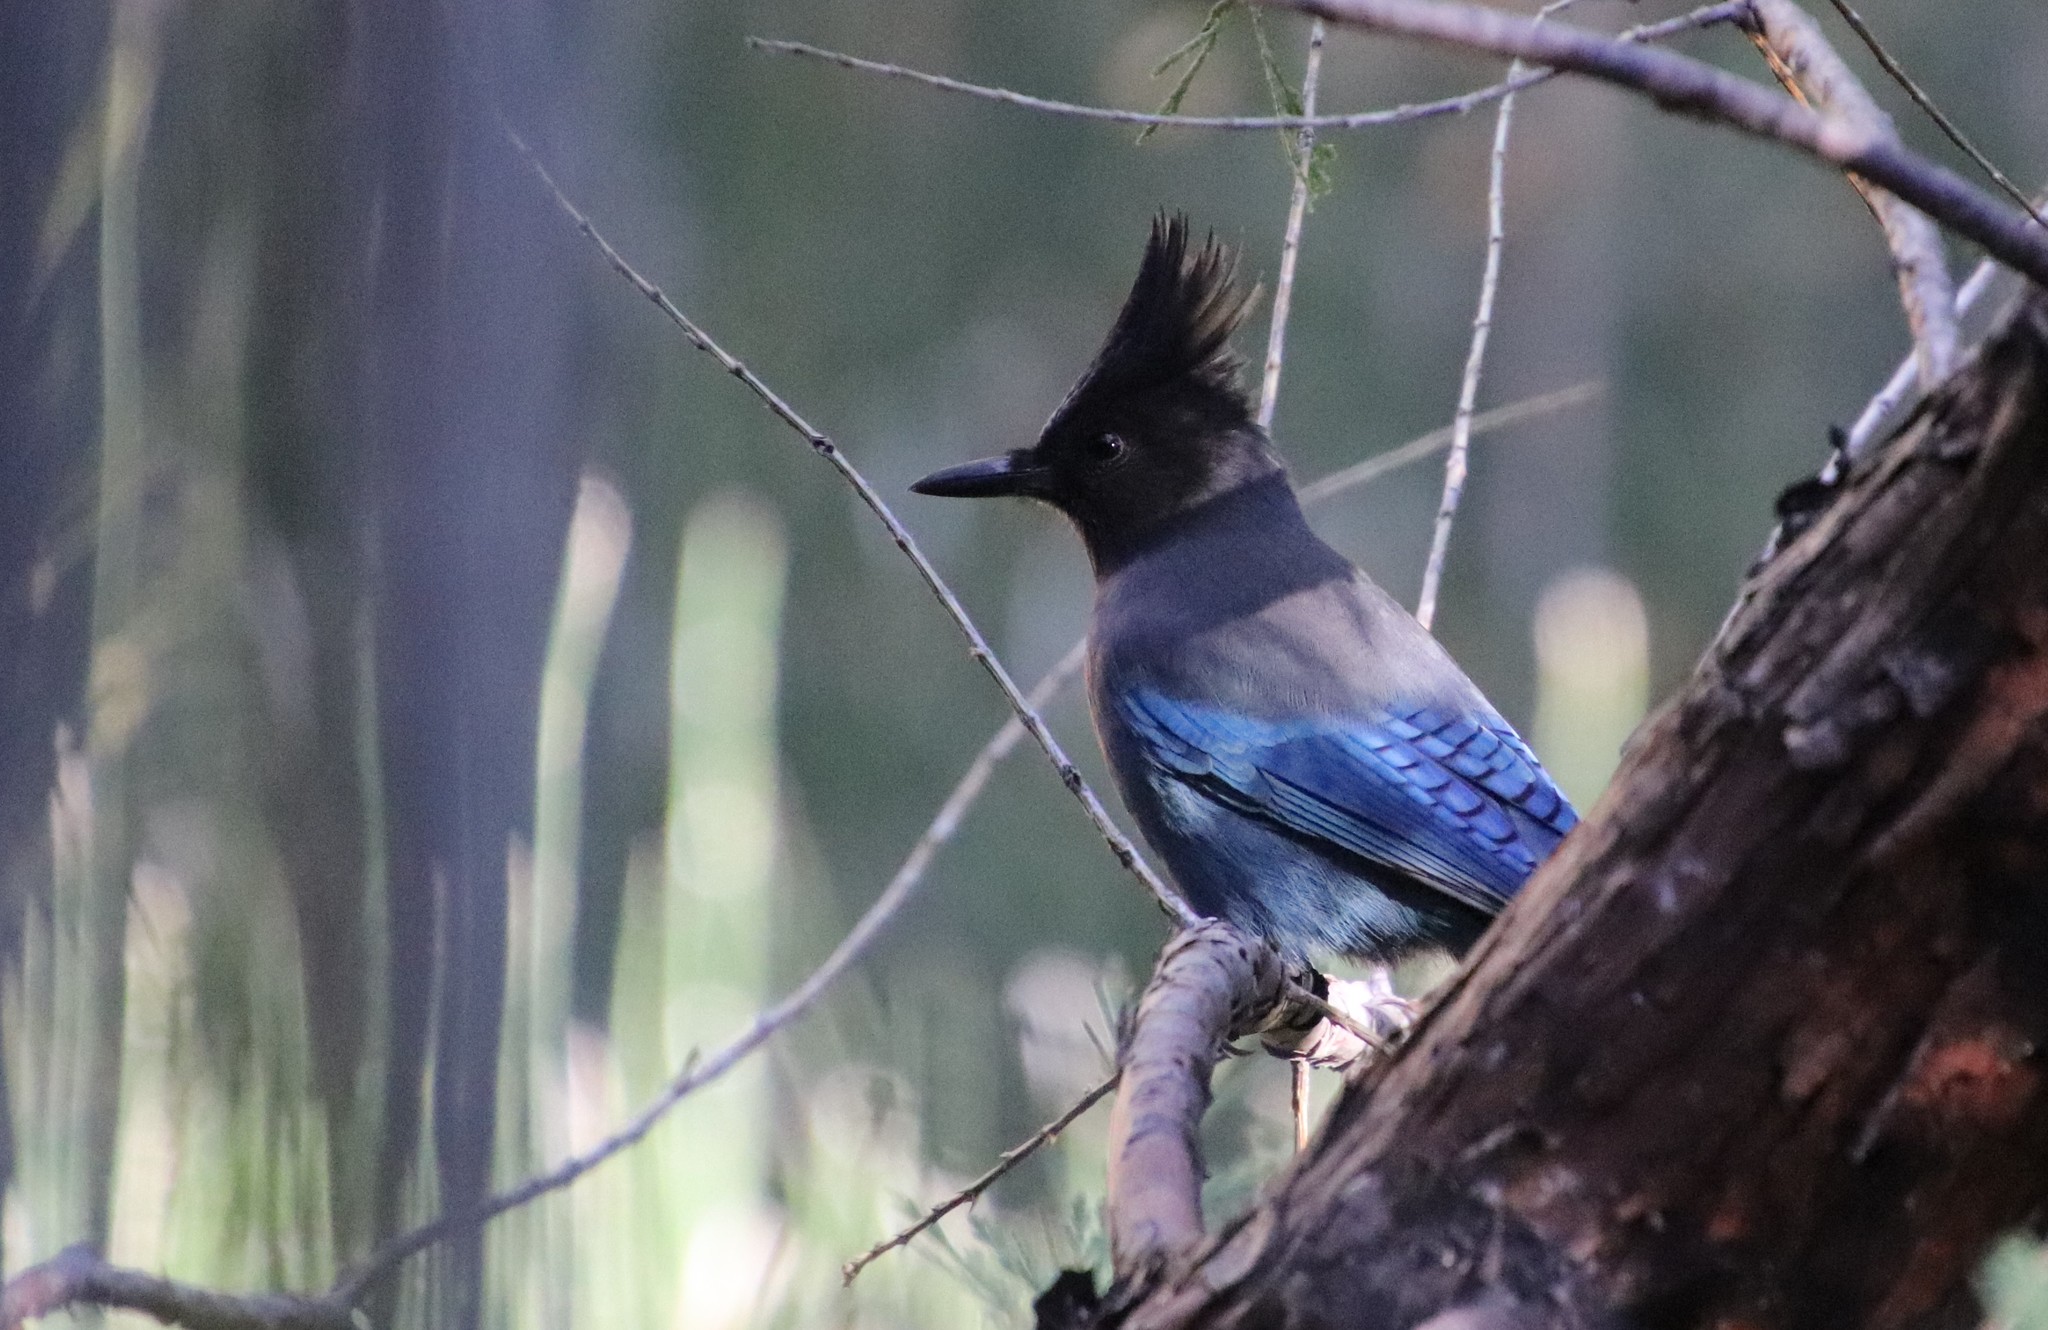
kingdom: Animalia
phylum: Chordata
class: Aves
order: Passeriformes
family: Corvidae
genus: Cyanocitta
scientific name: Cyanocitta stelleri
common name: Steller's jay
